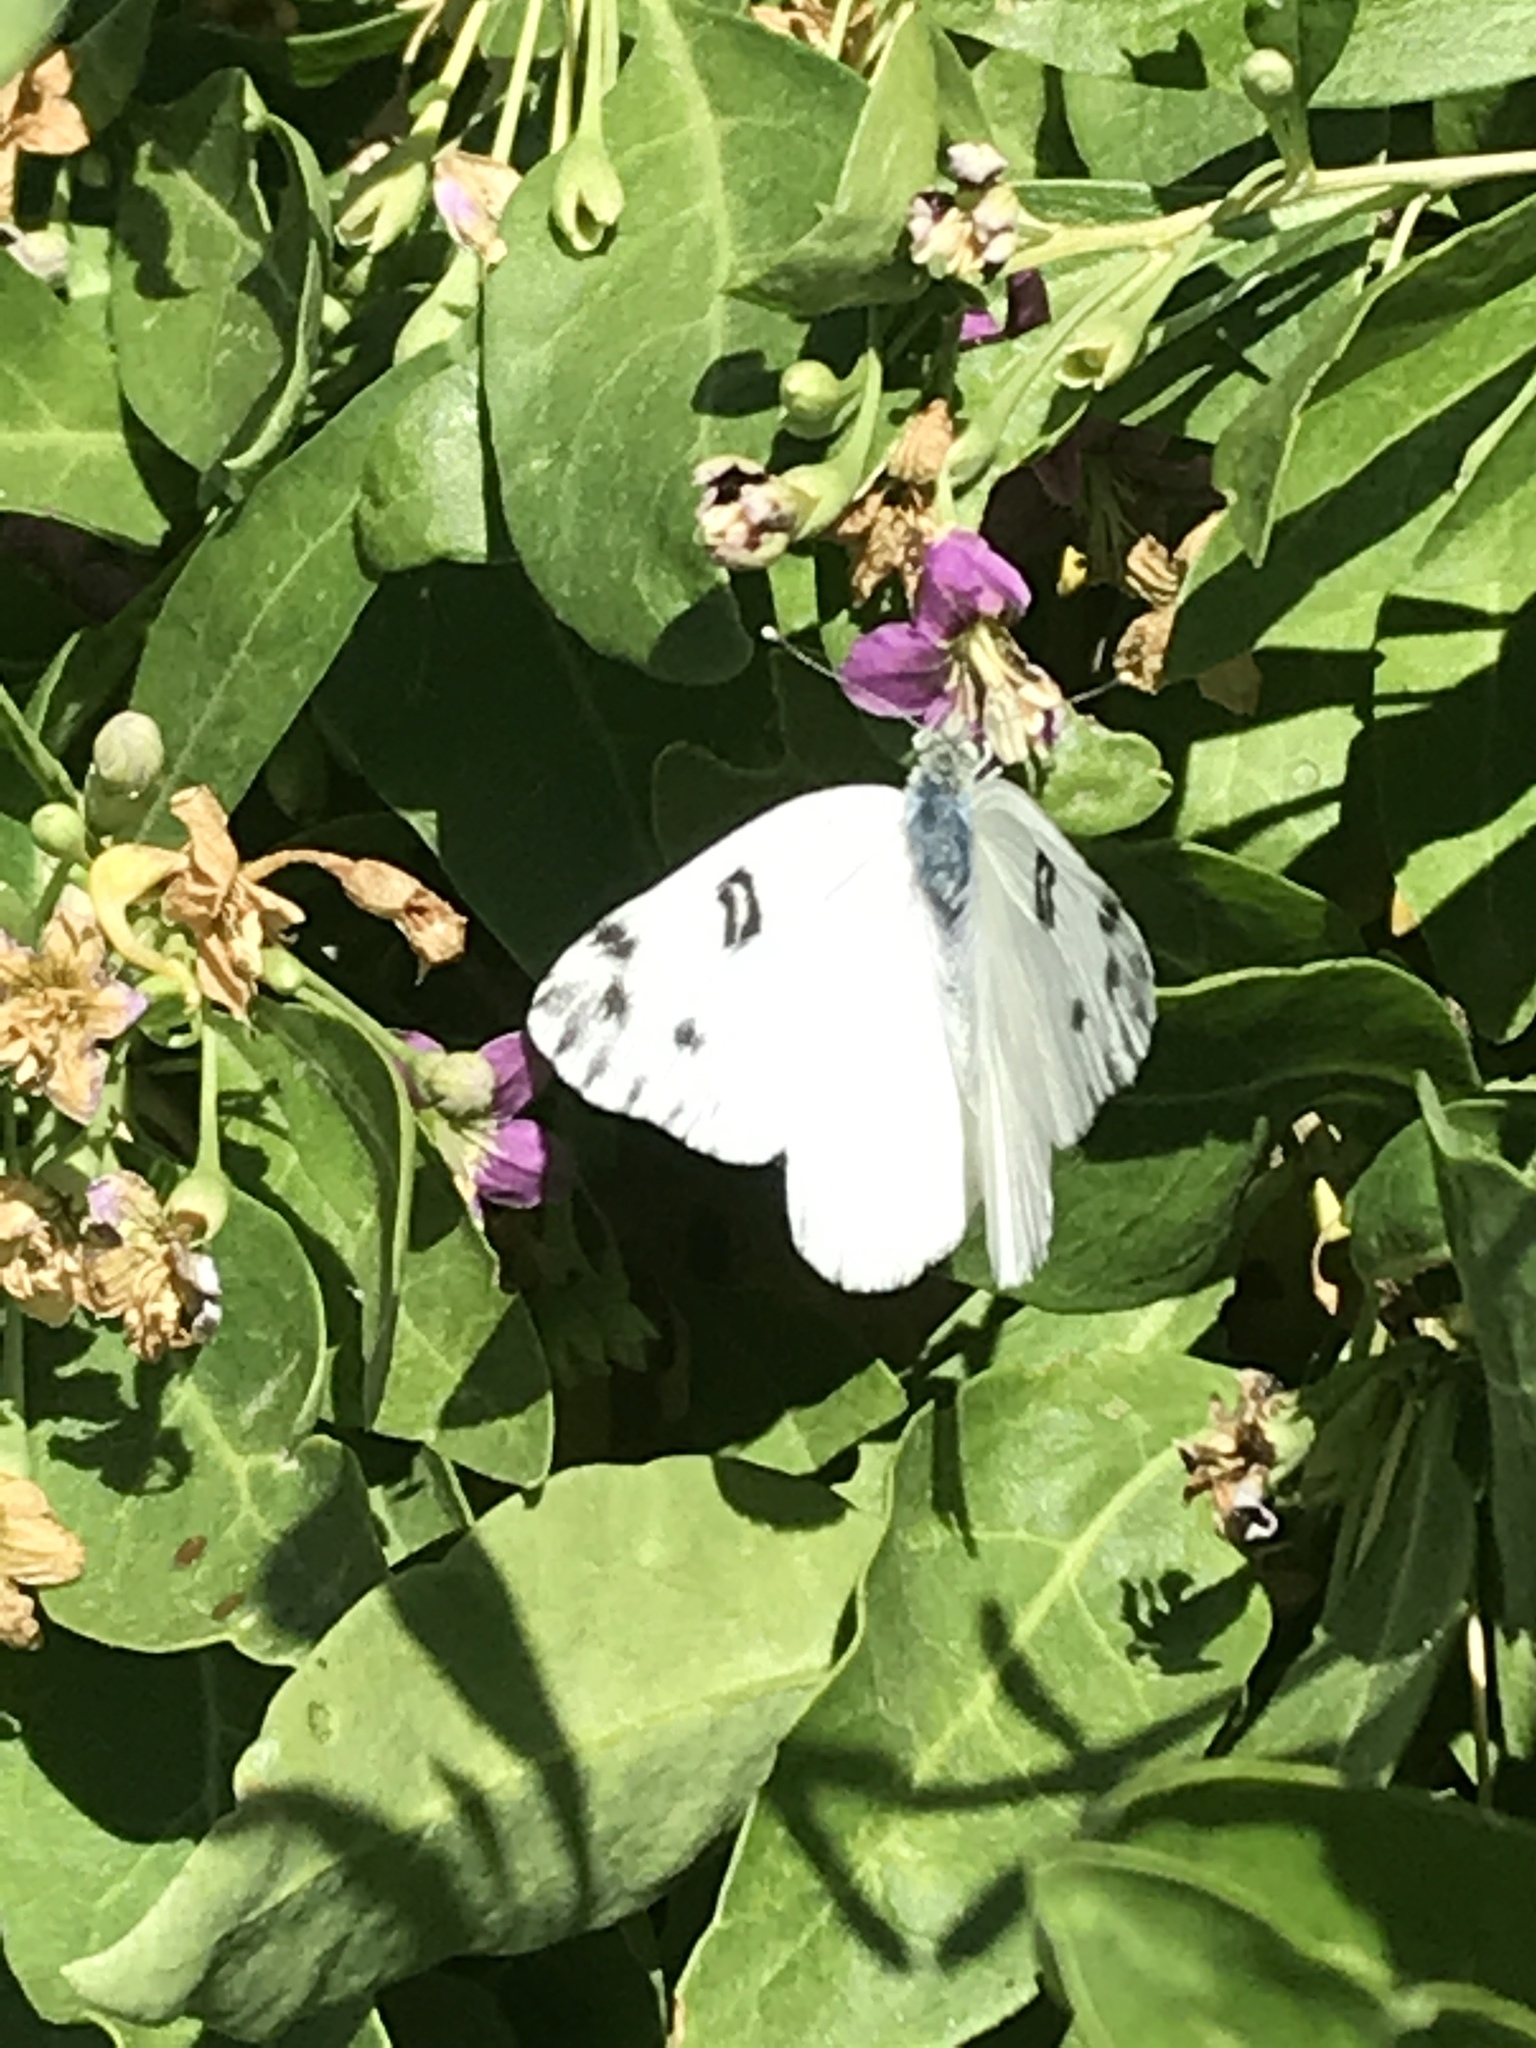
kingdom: Animalia
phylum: Arthropoda
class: Insecta
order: Lepidoptera
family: Pieridae
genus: Pontia
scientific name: Pontia beckerii
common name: Becker's white
